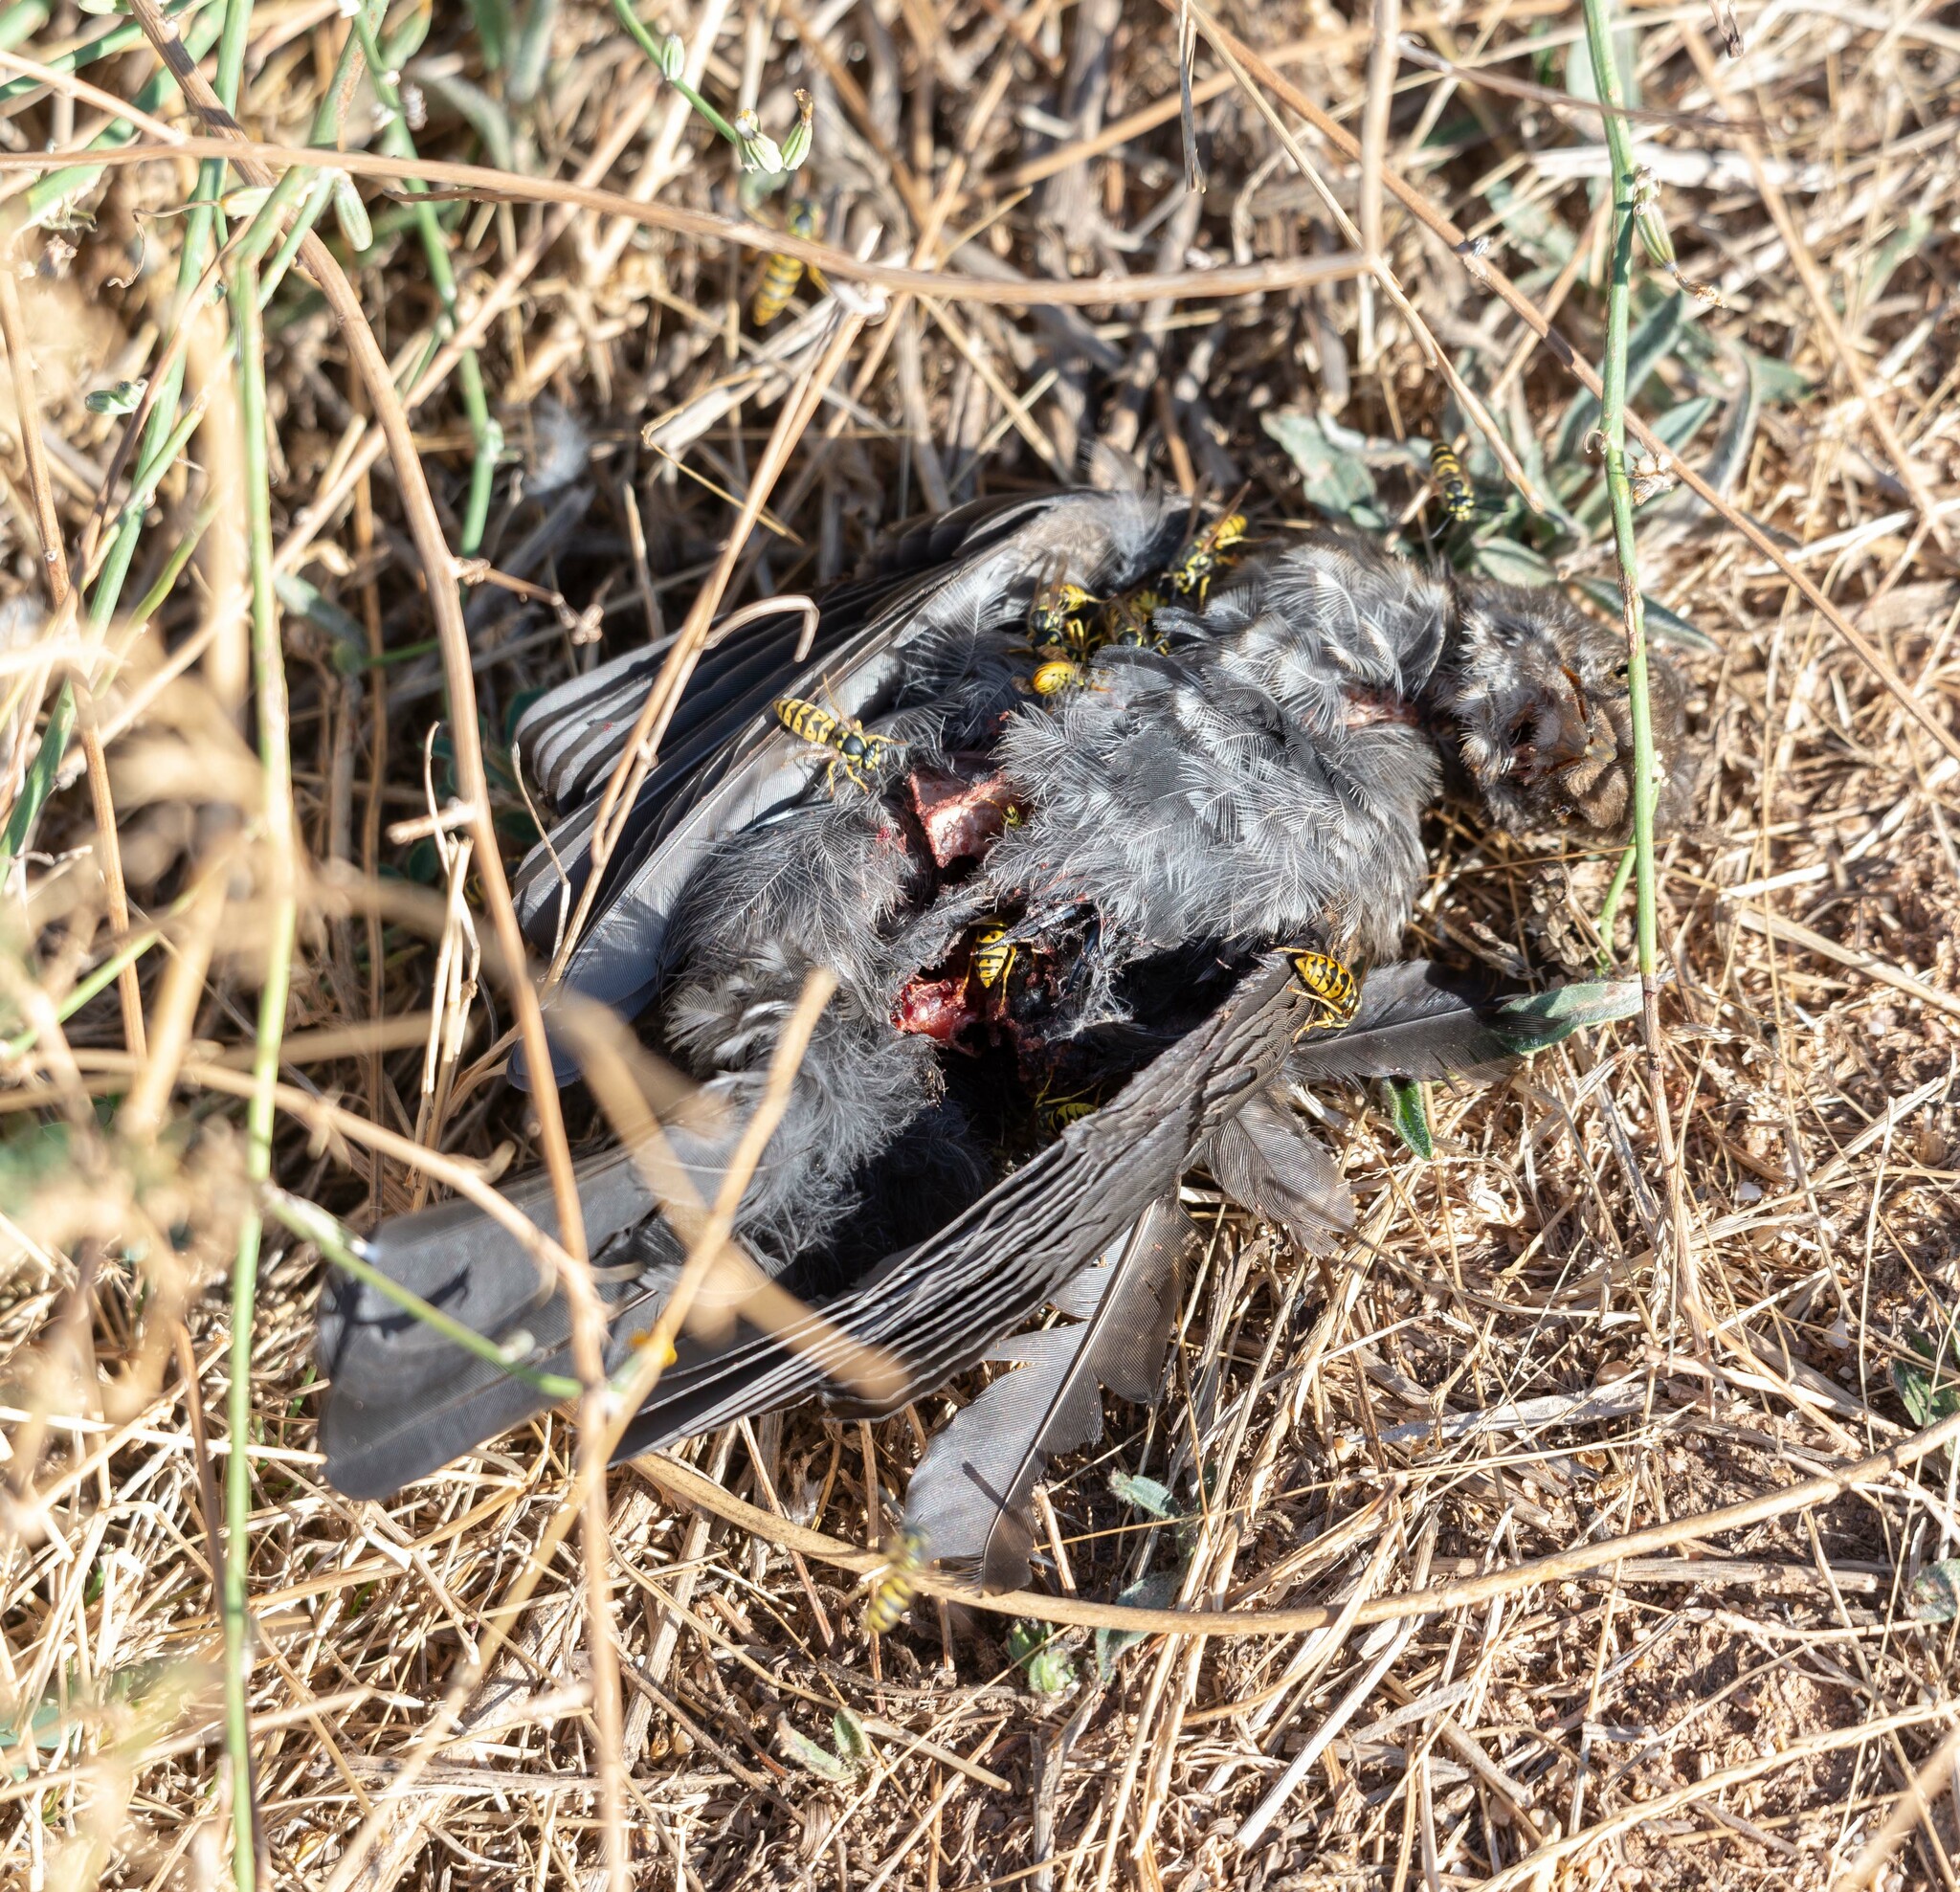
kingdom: Animalia
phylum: Chordata
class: Aves
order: Passeriformes
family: Turdidae
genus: Turdus
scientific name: Turdus merula
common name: Common blackbird
